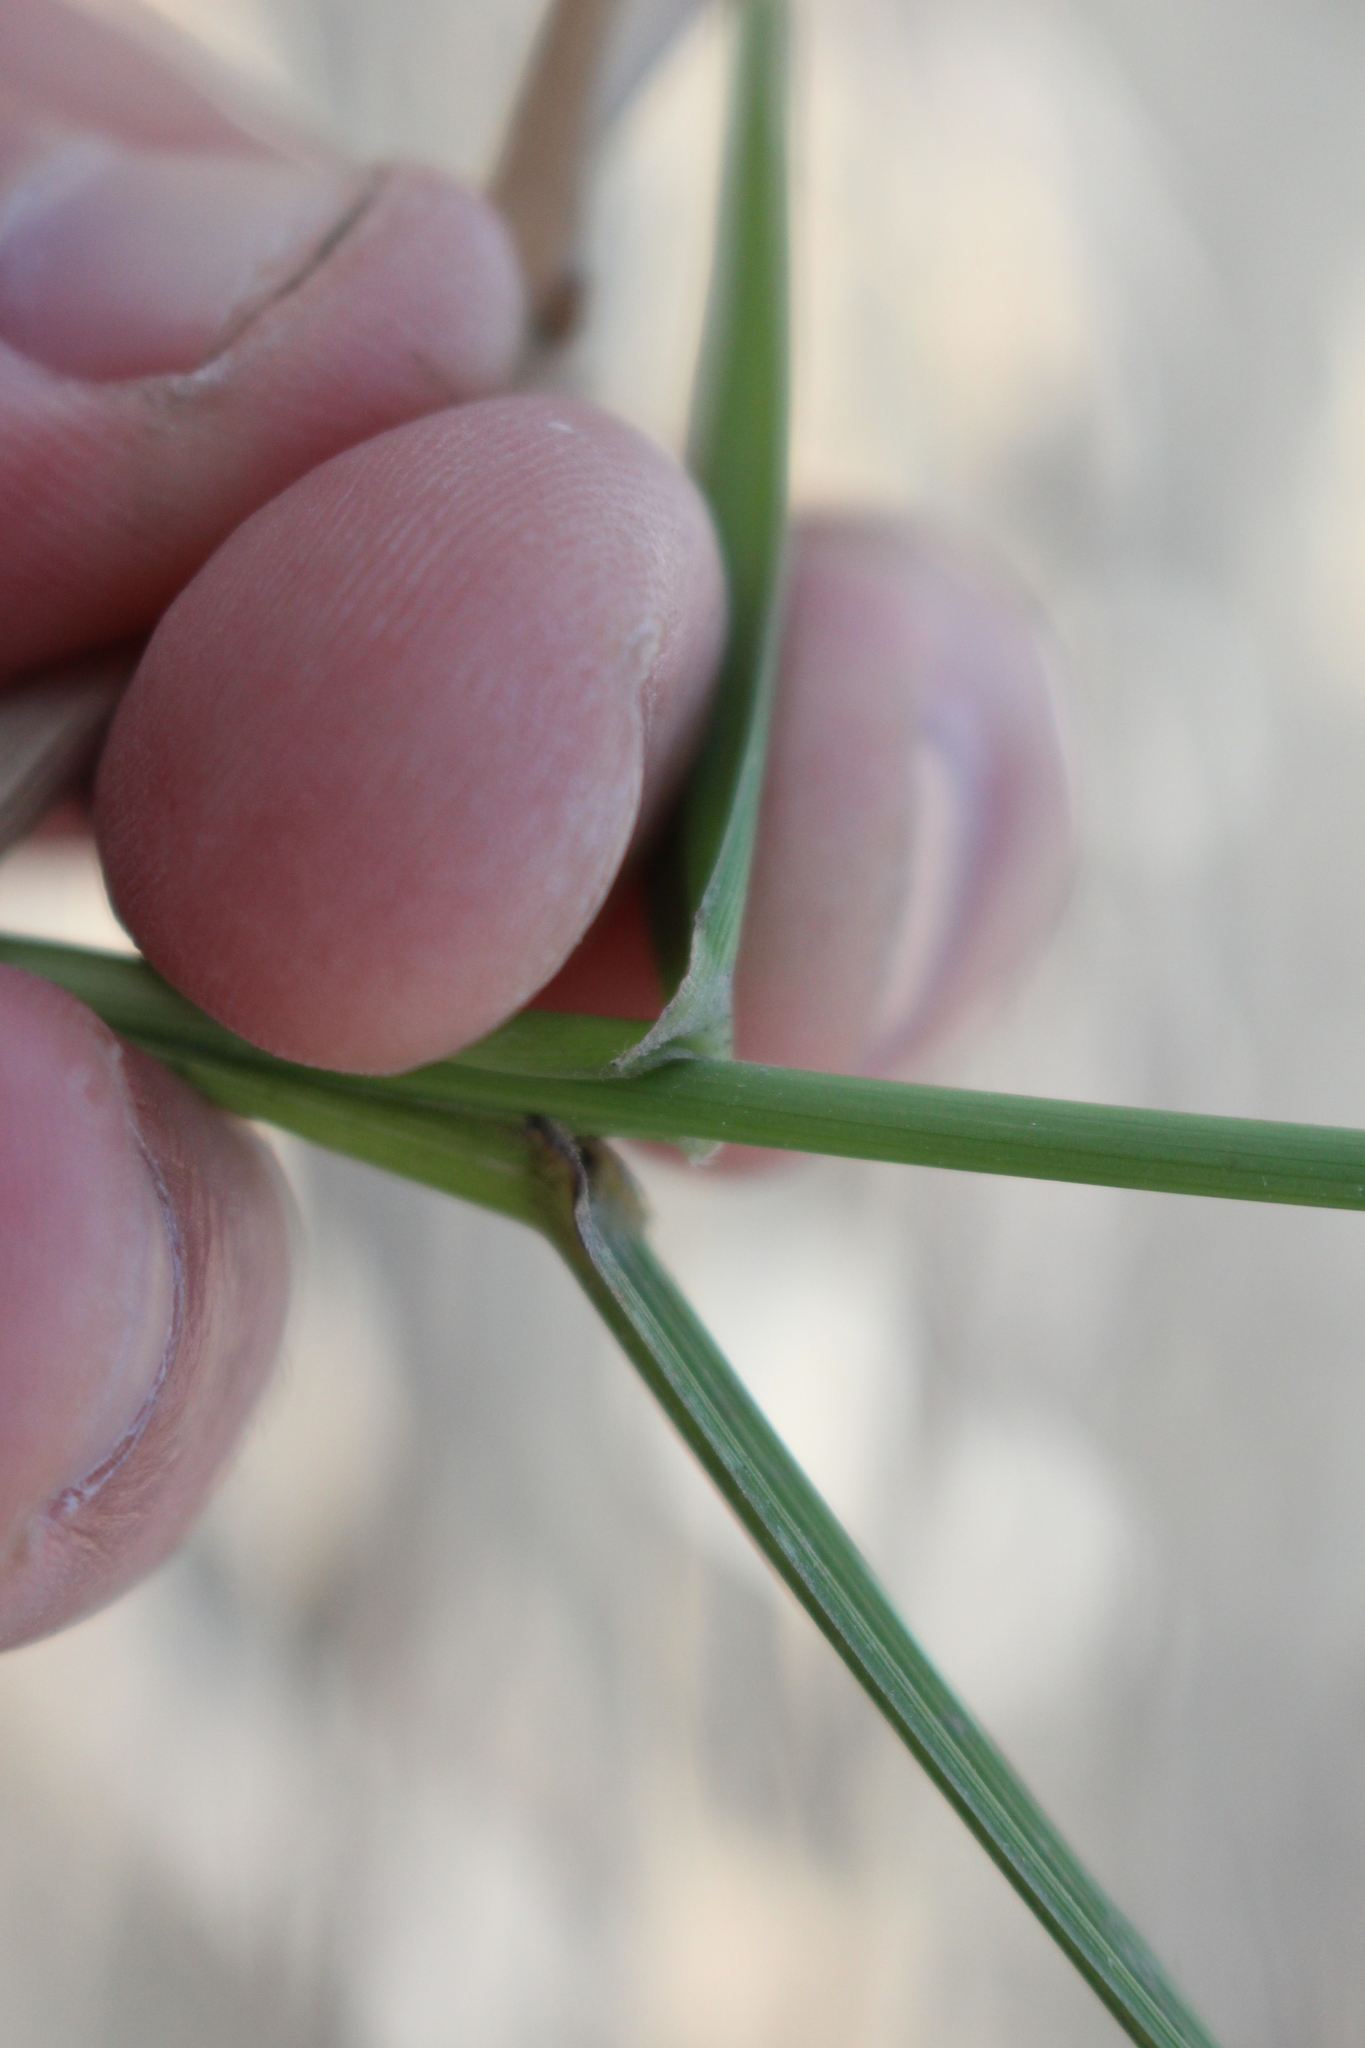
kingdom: Plantae
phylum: Tracheophyta
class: Liliopsida
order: Poales
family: Poaceae
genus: Lolium
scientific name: Lolium arundinaceum
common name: Reed fescue
